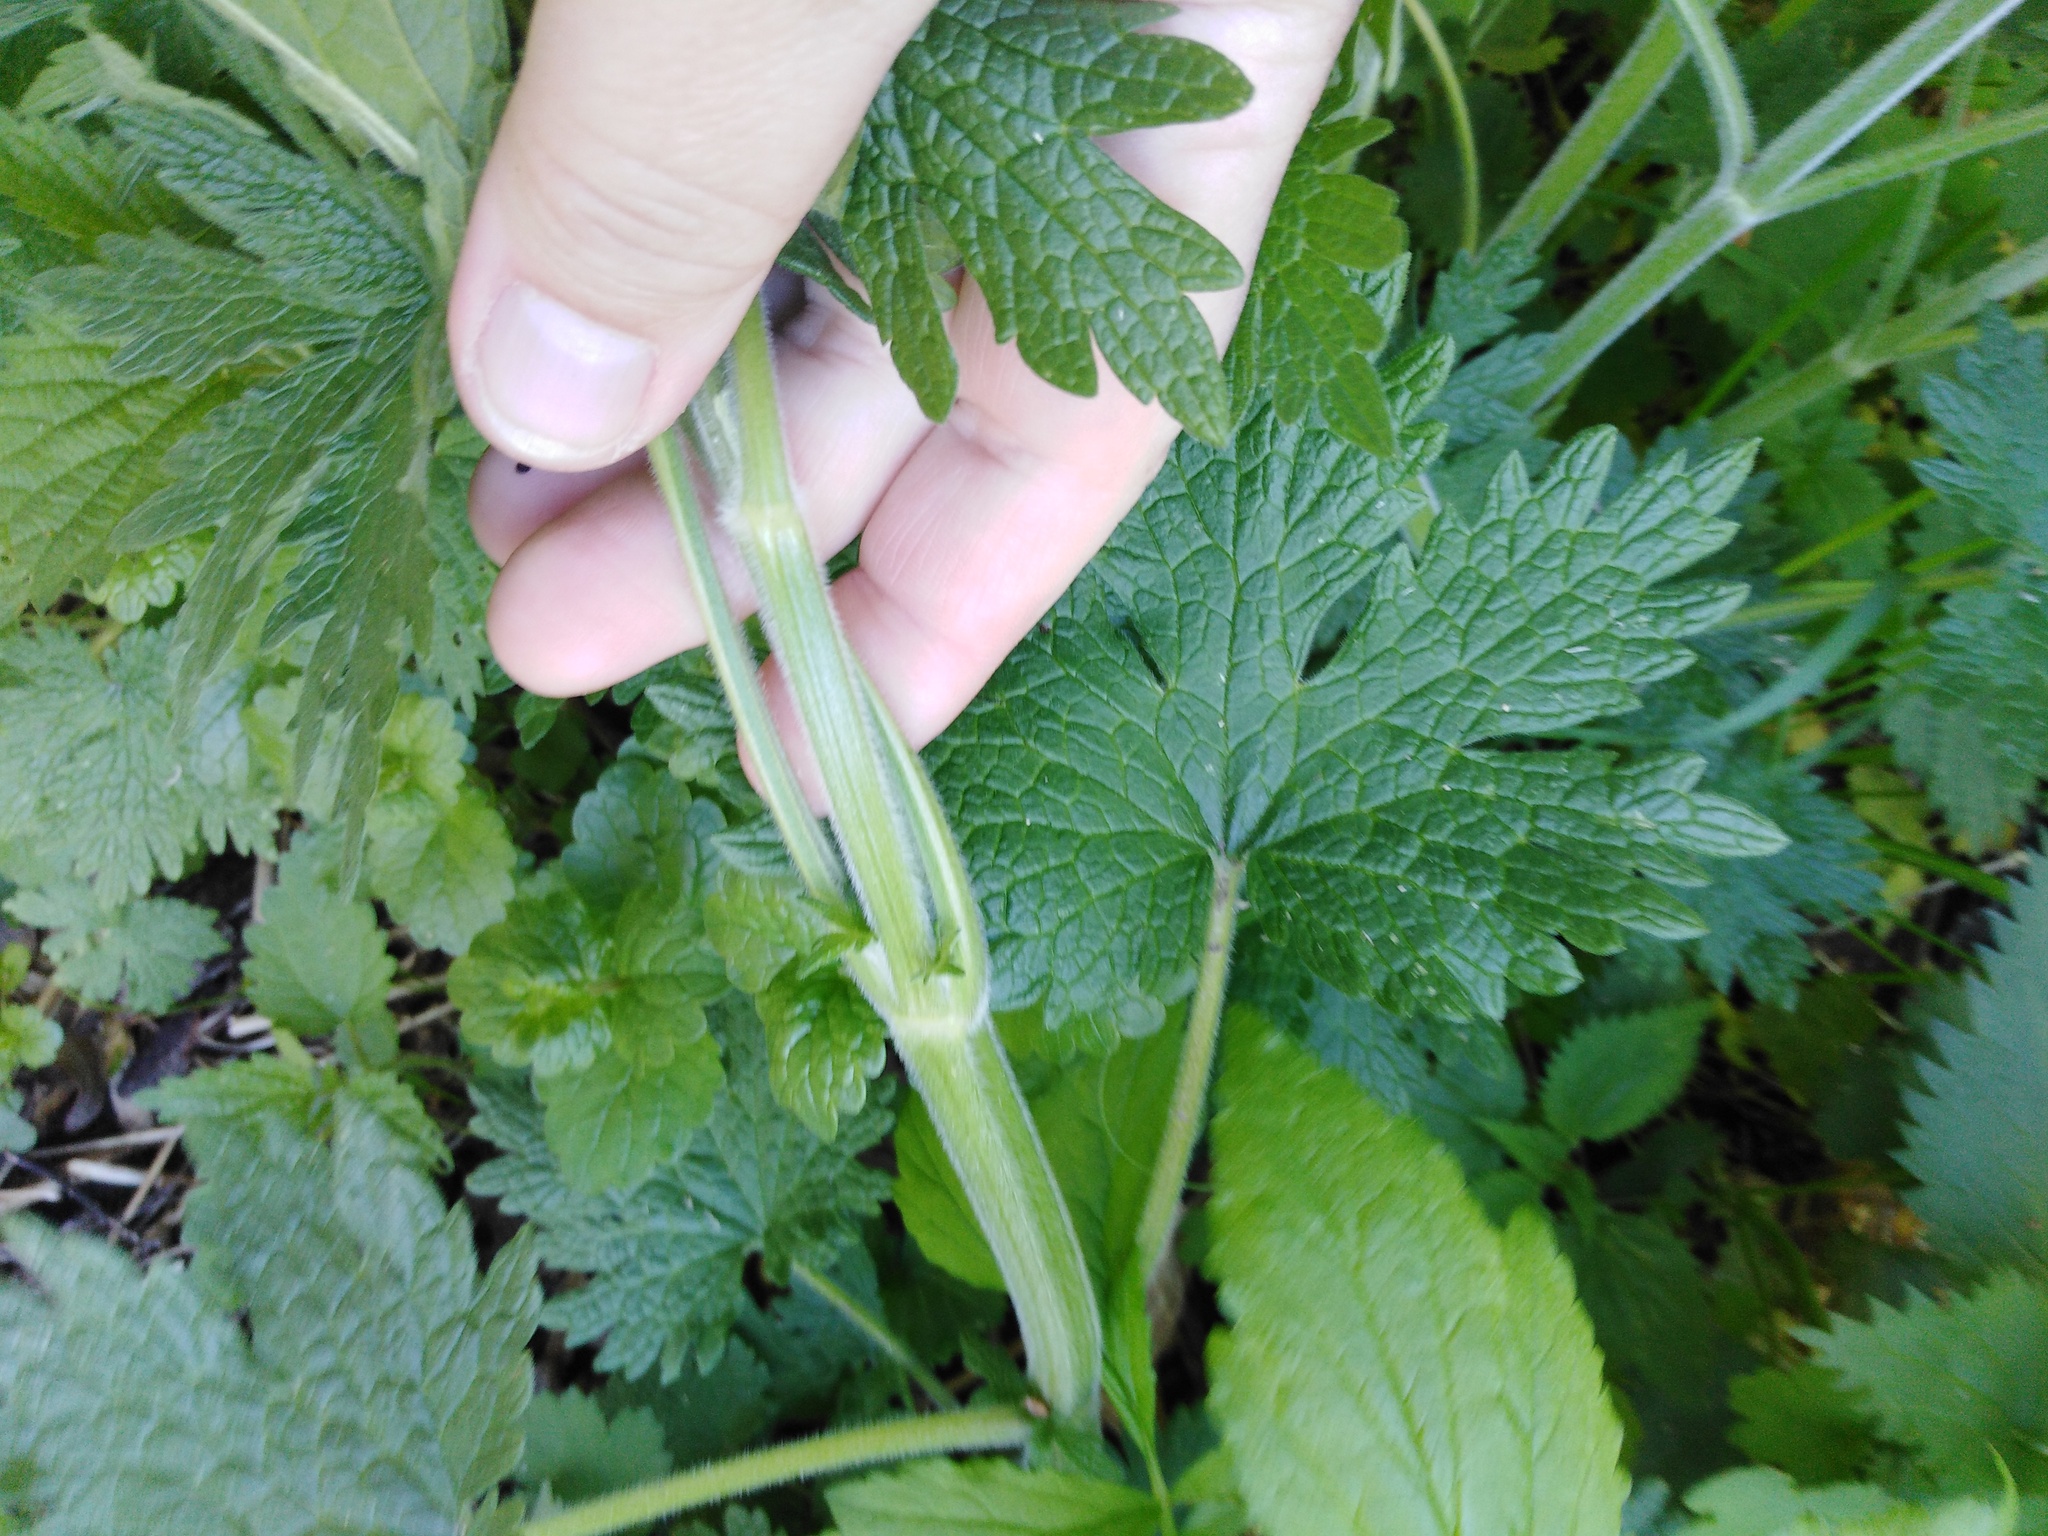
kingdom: Plantae
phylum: Tracheophyta
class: Magnoliopsida
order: Lamiales
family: Lamiaceae
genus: Leonurus
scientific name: Leonurus quinquelobatus
